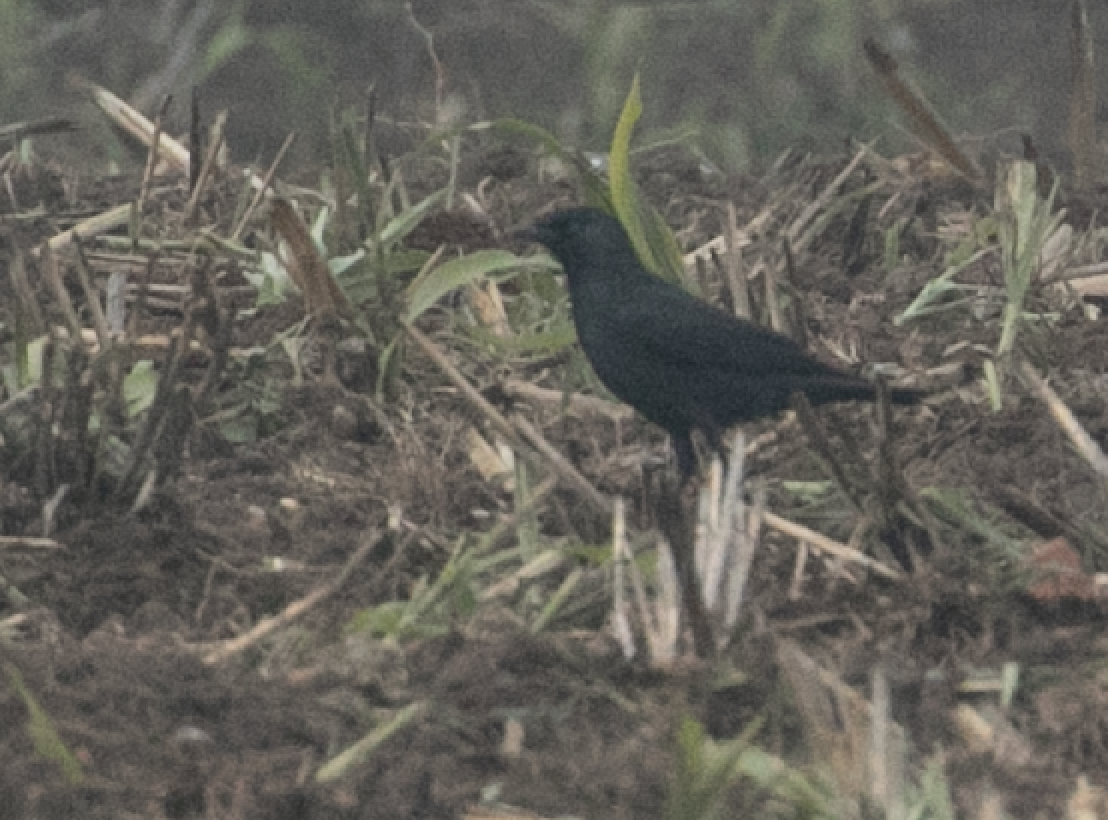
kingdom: Animalia
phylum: Chordata
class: Aves
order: Passeriformes
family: Corvidae
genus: Coloeus
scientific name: Coloeus monedula
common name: Western jackdaw
